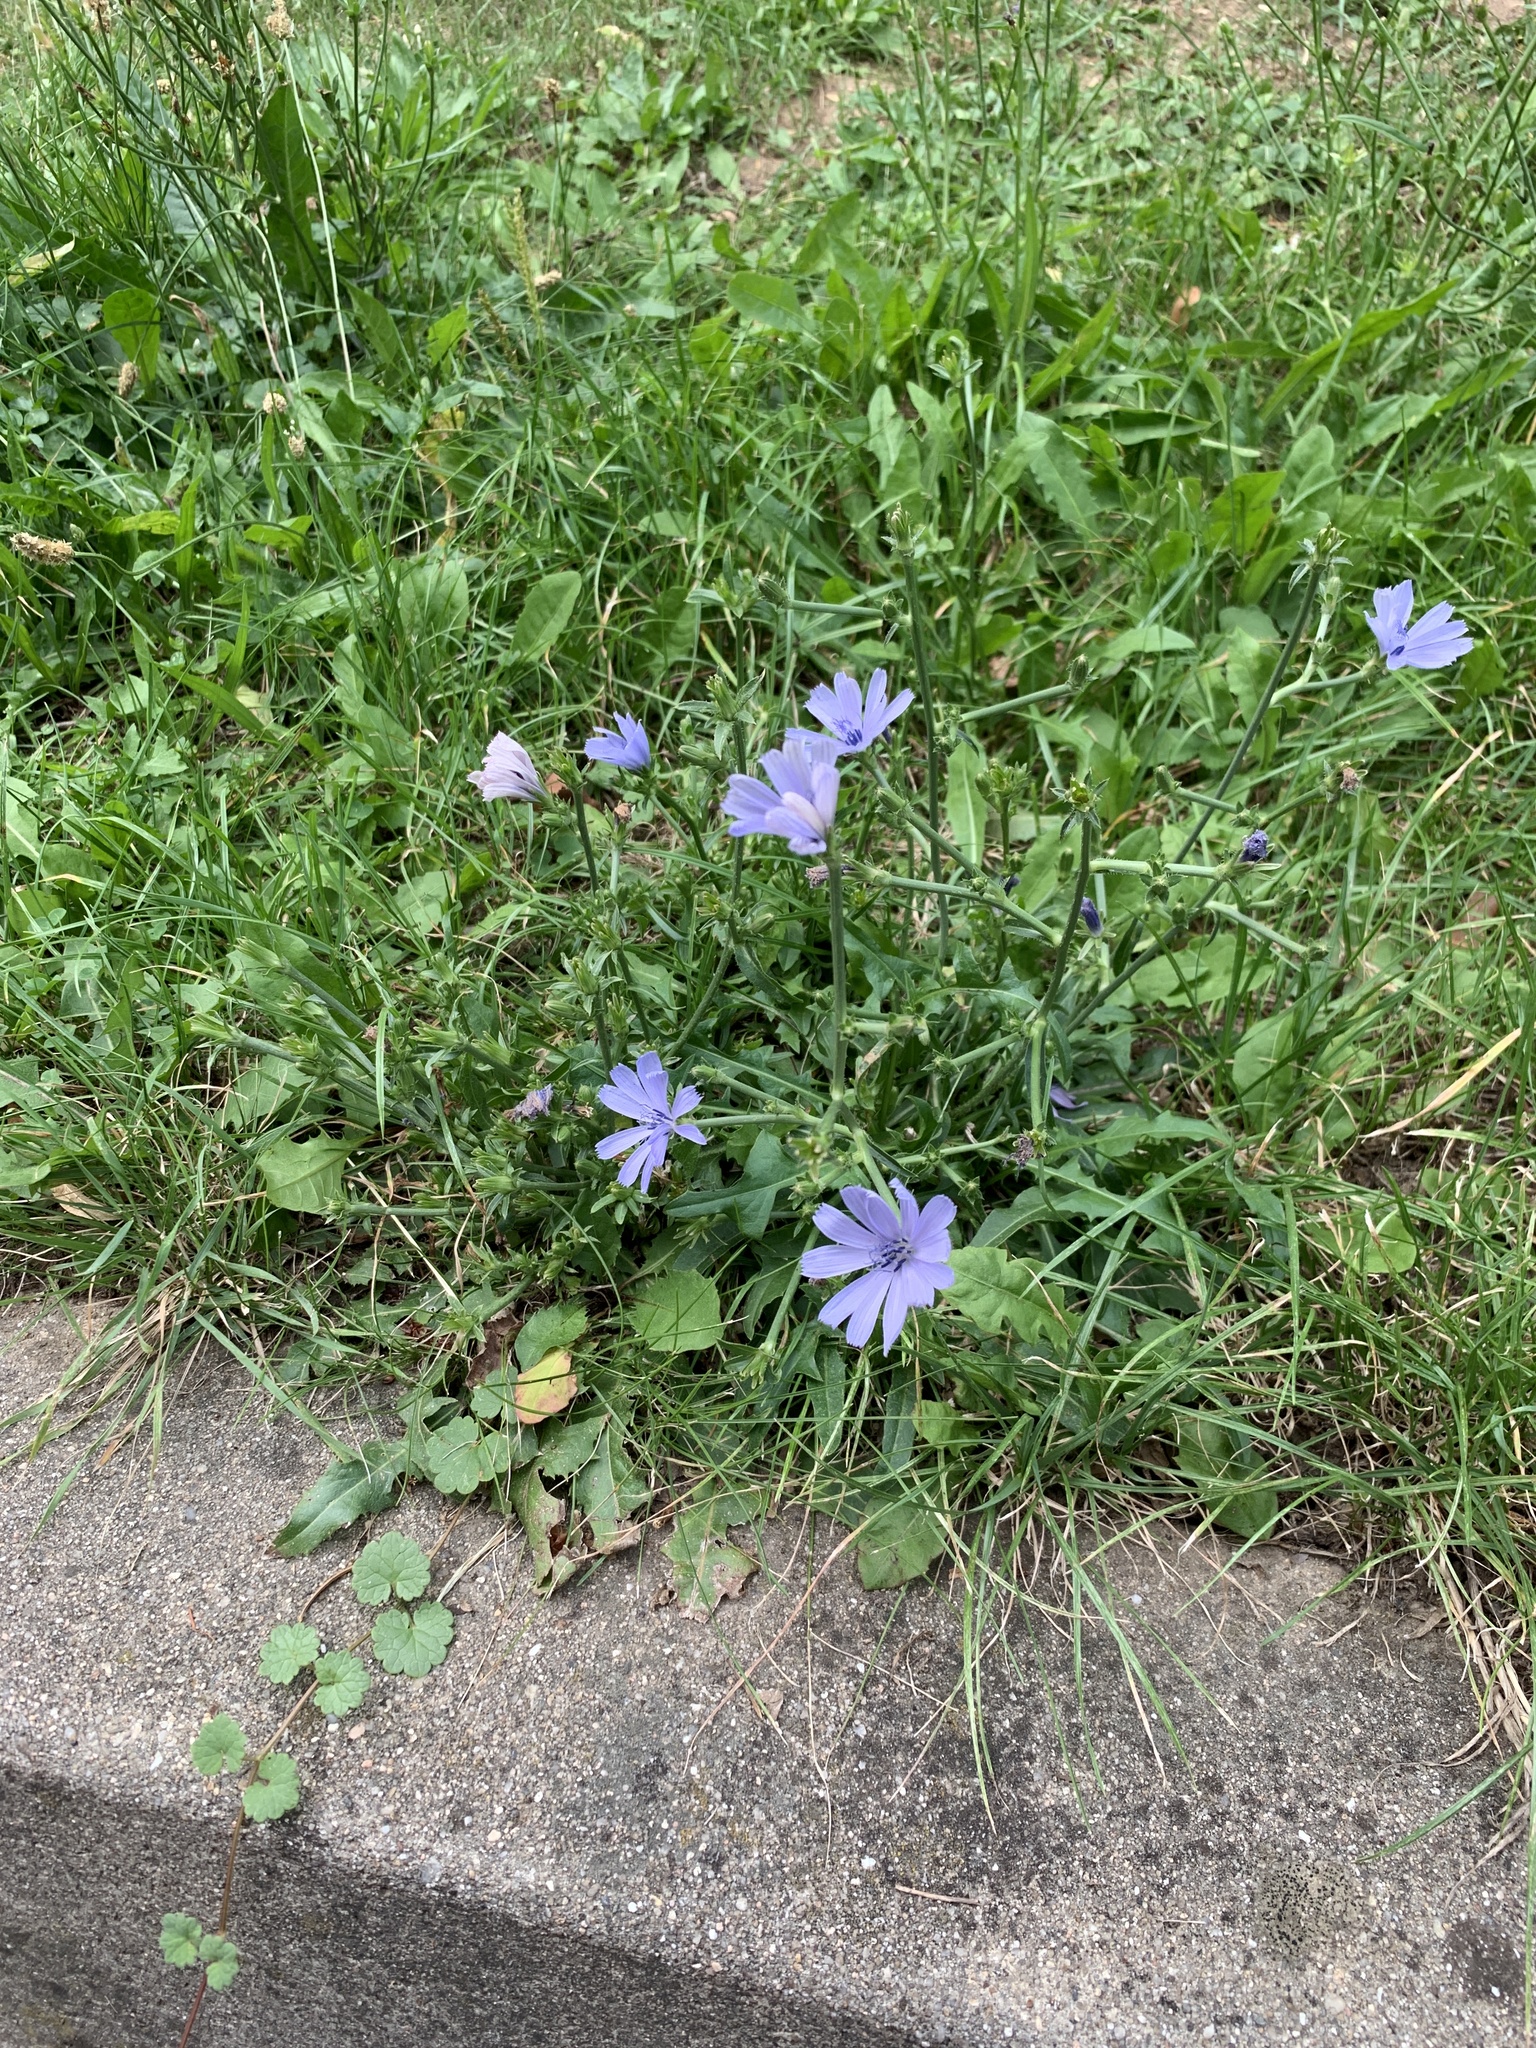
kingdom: Plantae
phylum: Tracheophyta
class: Magnoliopsida
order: Asterales
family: Asteraceae
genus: Cichorium
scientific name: Cichorium intybus
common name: Chicory
